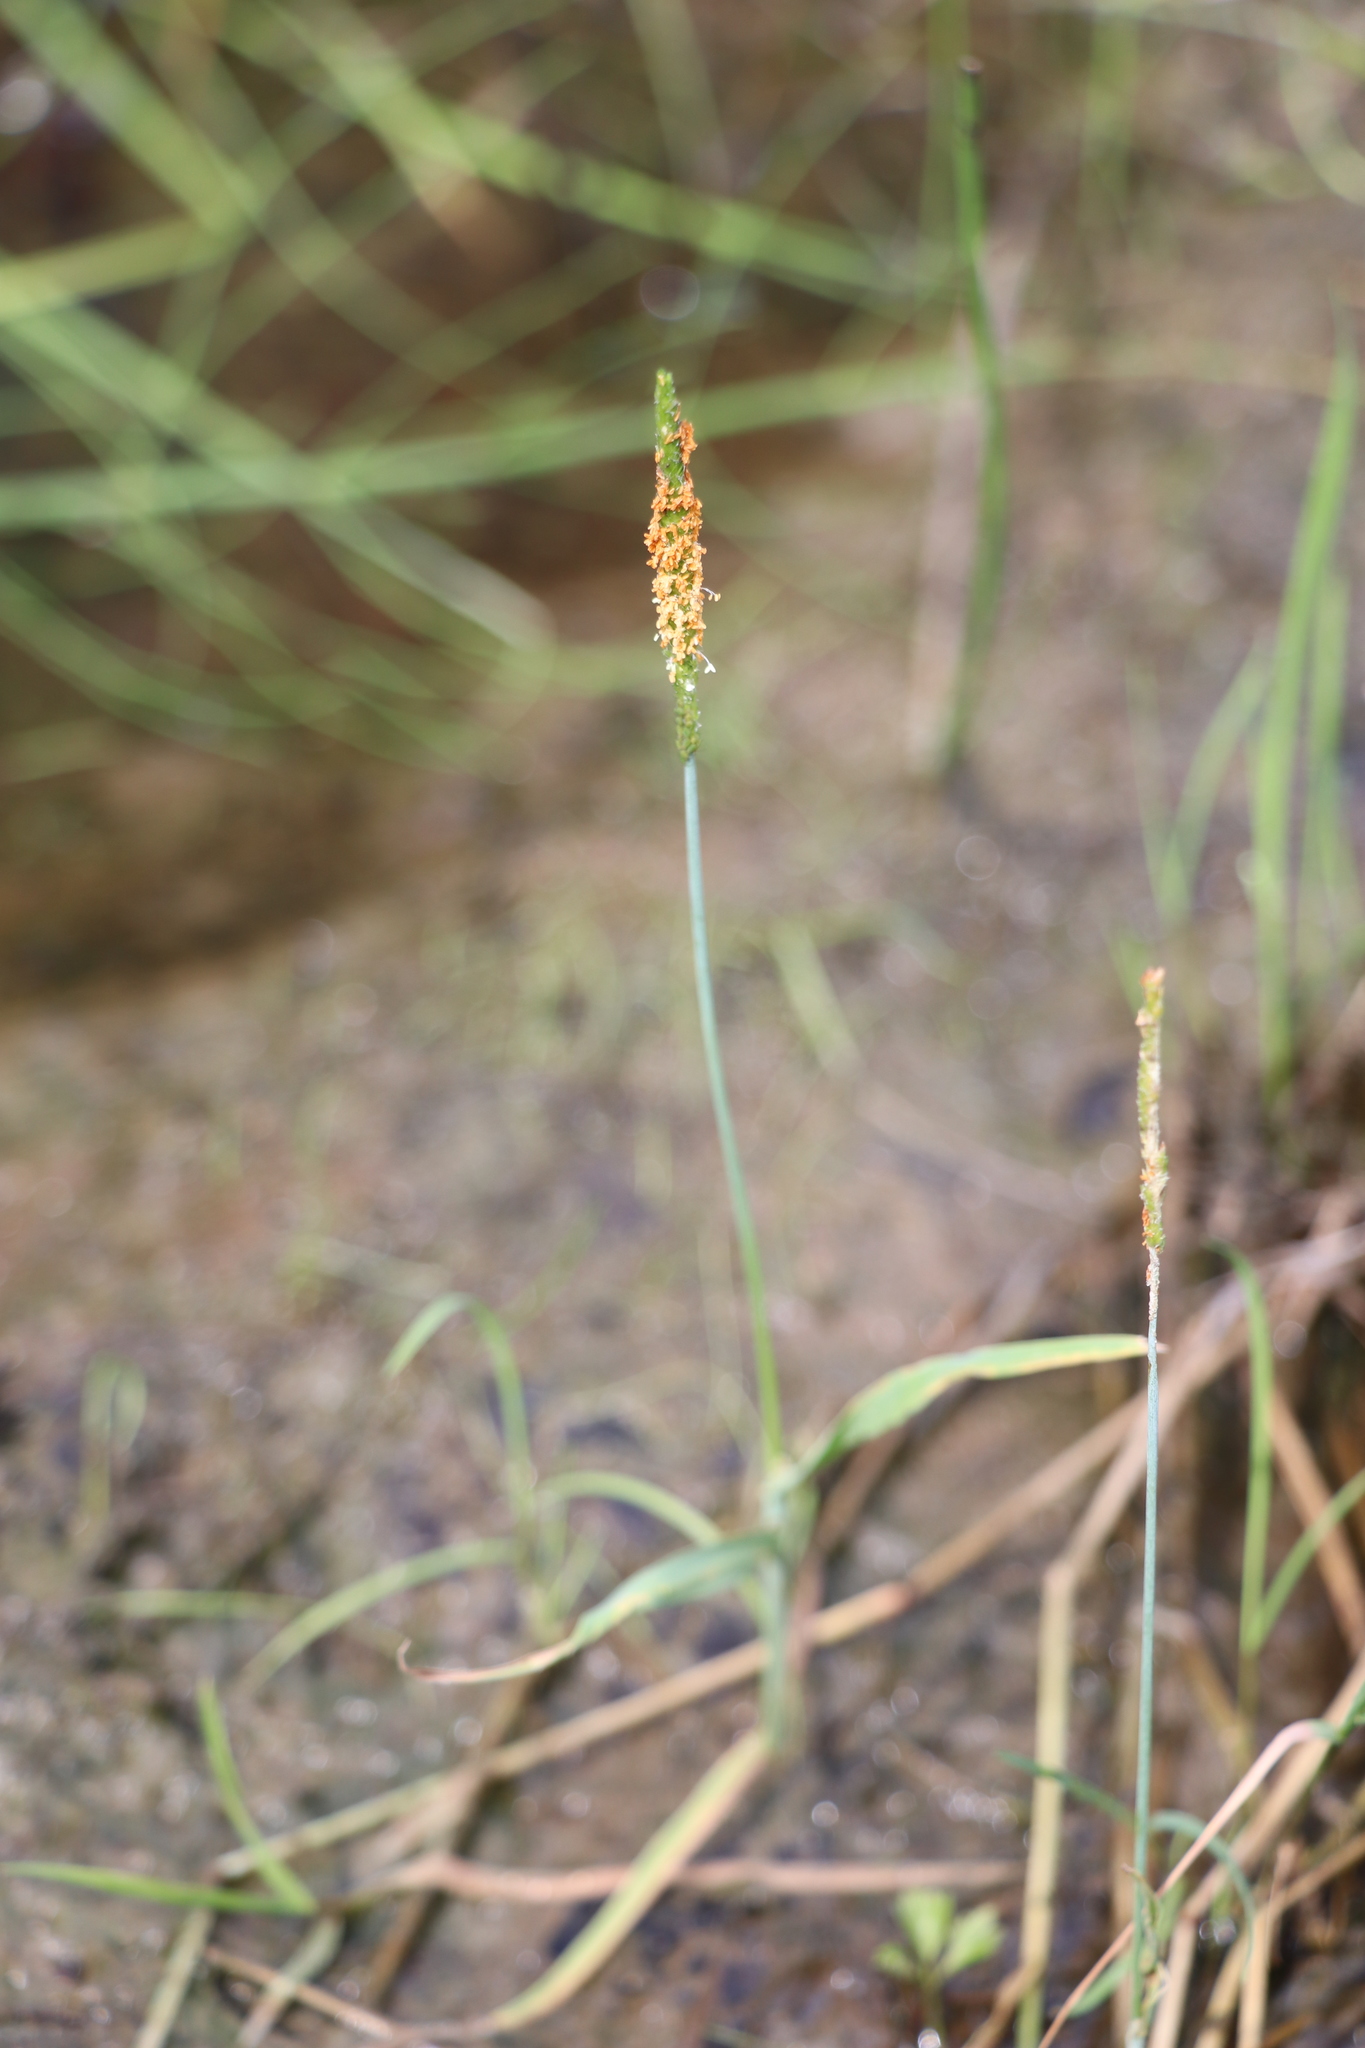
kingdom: Plantae
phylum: Tracheophyta
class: Liliopsida
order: Poales
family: Poaceae
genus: Alopecurus
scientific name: Alopecurus aequalis
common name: Orange foxtail
